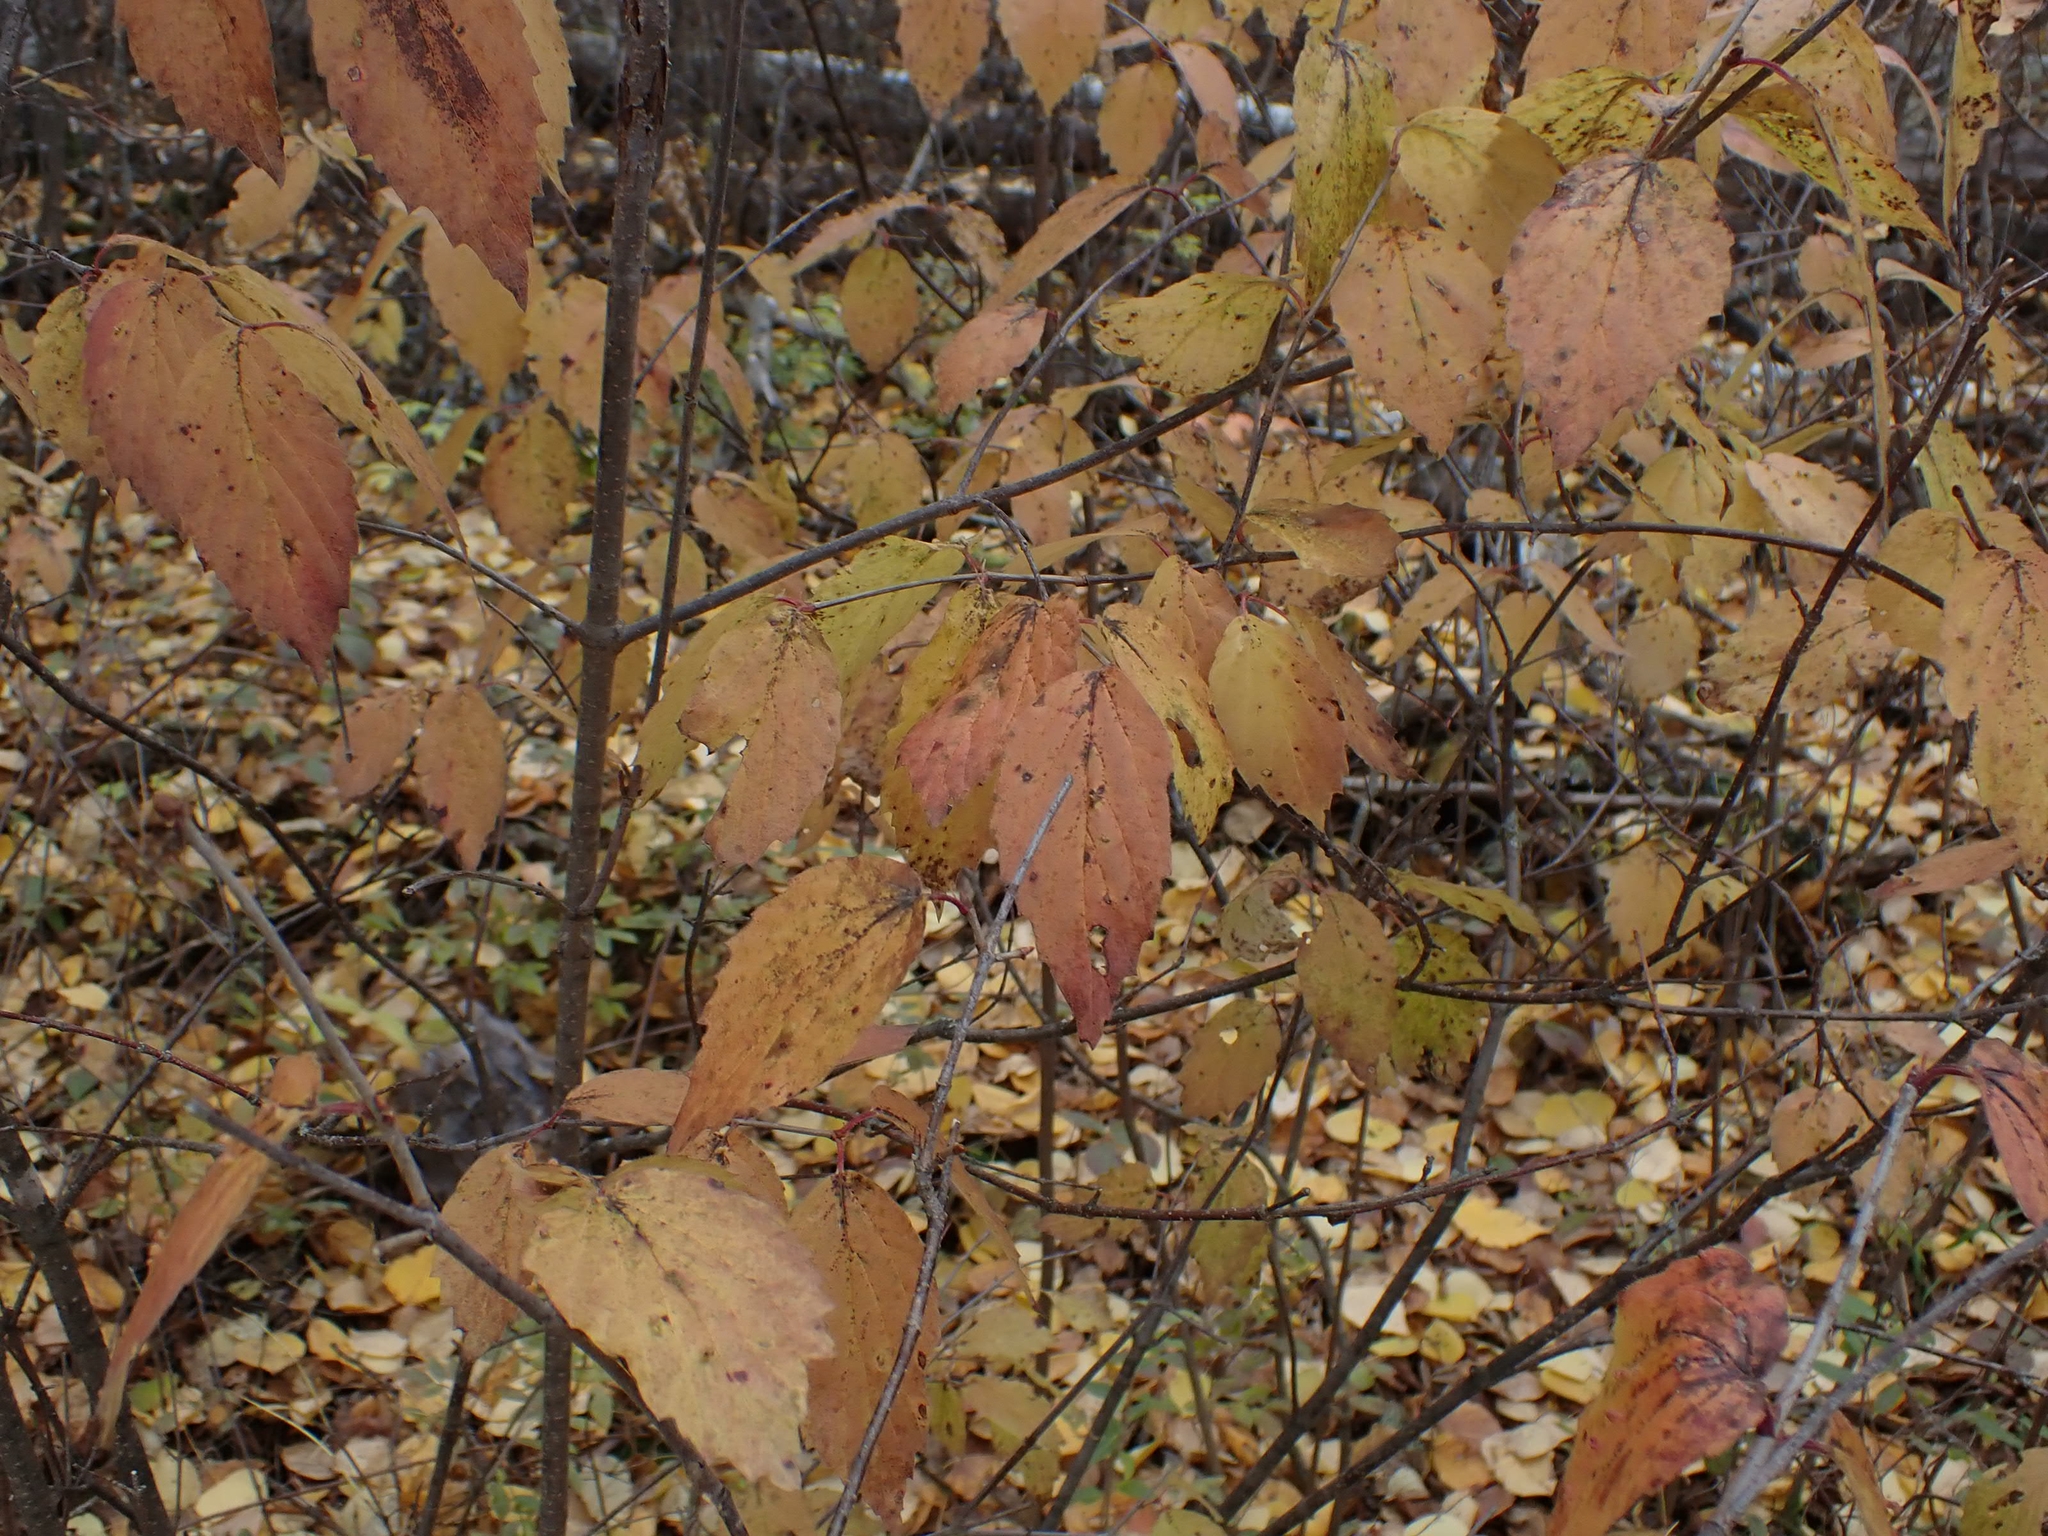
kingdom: Plantae
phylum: Tracheophyta
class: Magnoliopsida
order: Dipsacales
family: Viburnaceae
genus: Viburnum
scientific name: Viburnum rafinesqueanum
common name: Downy arrow-wood
